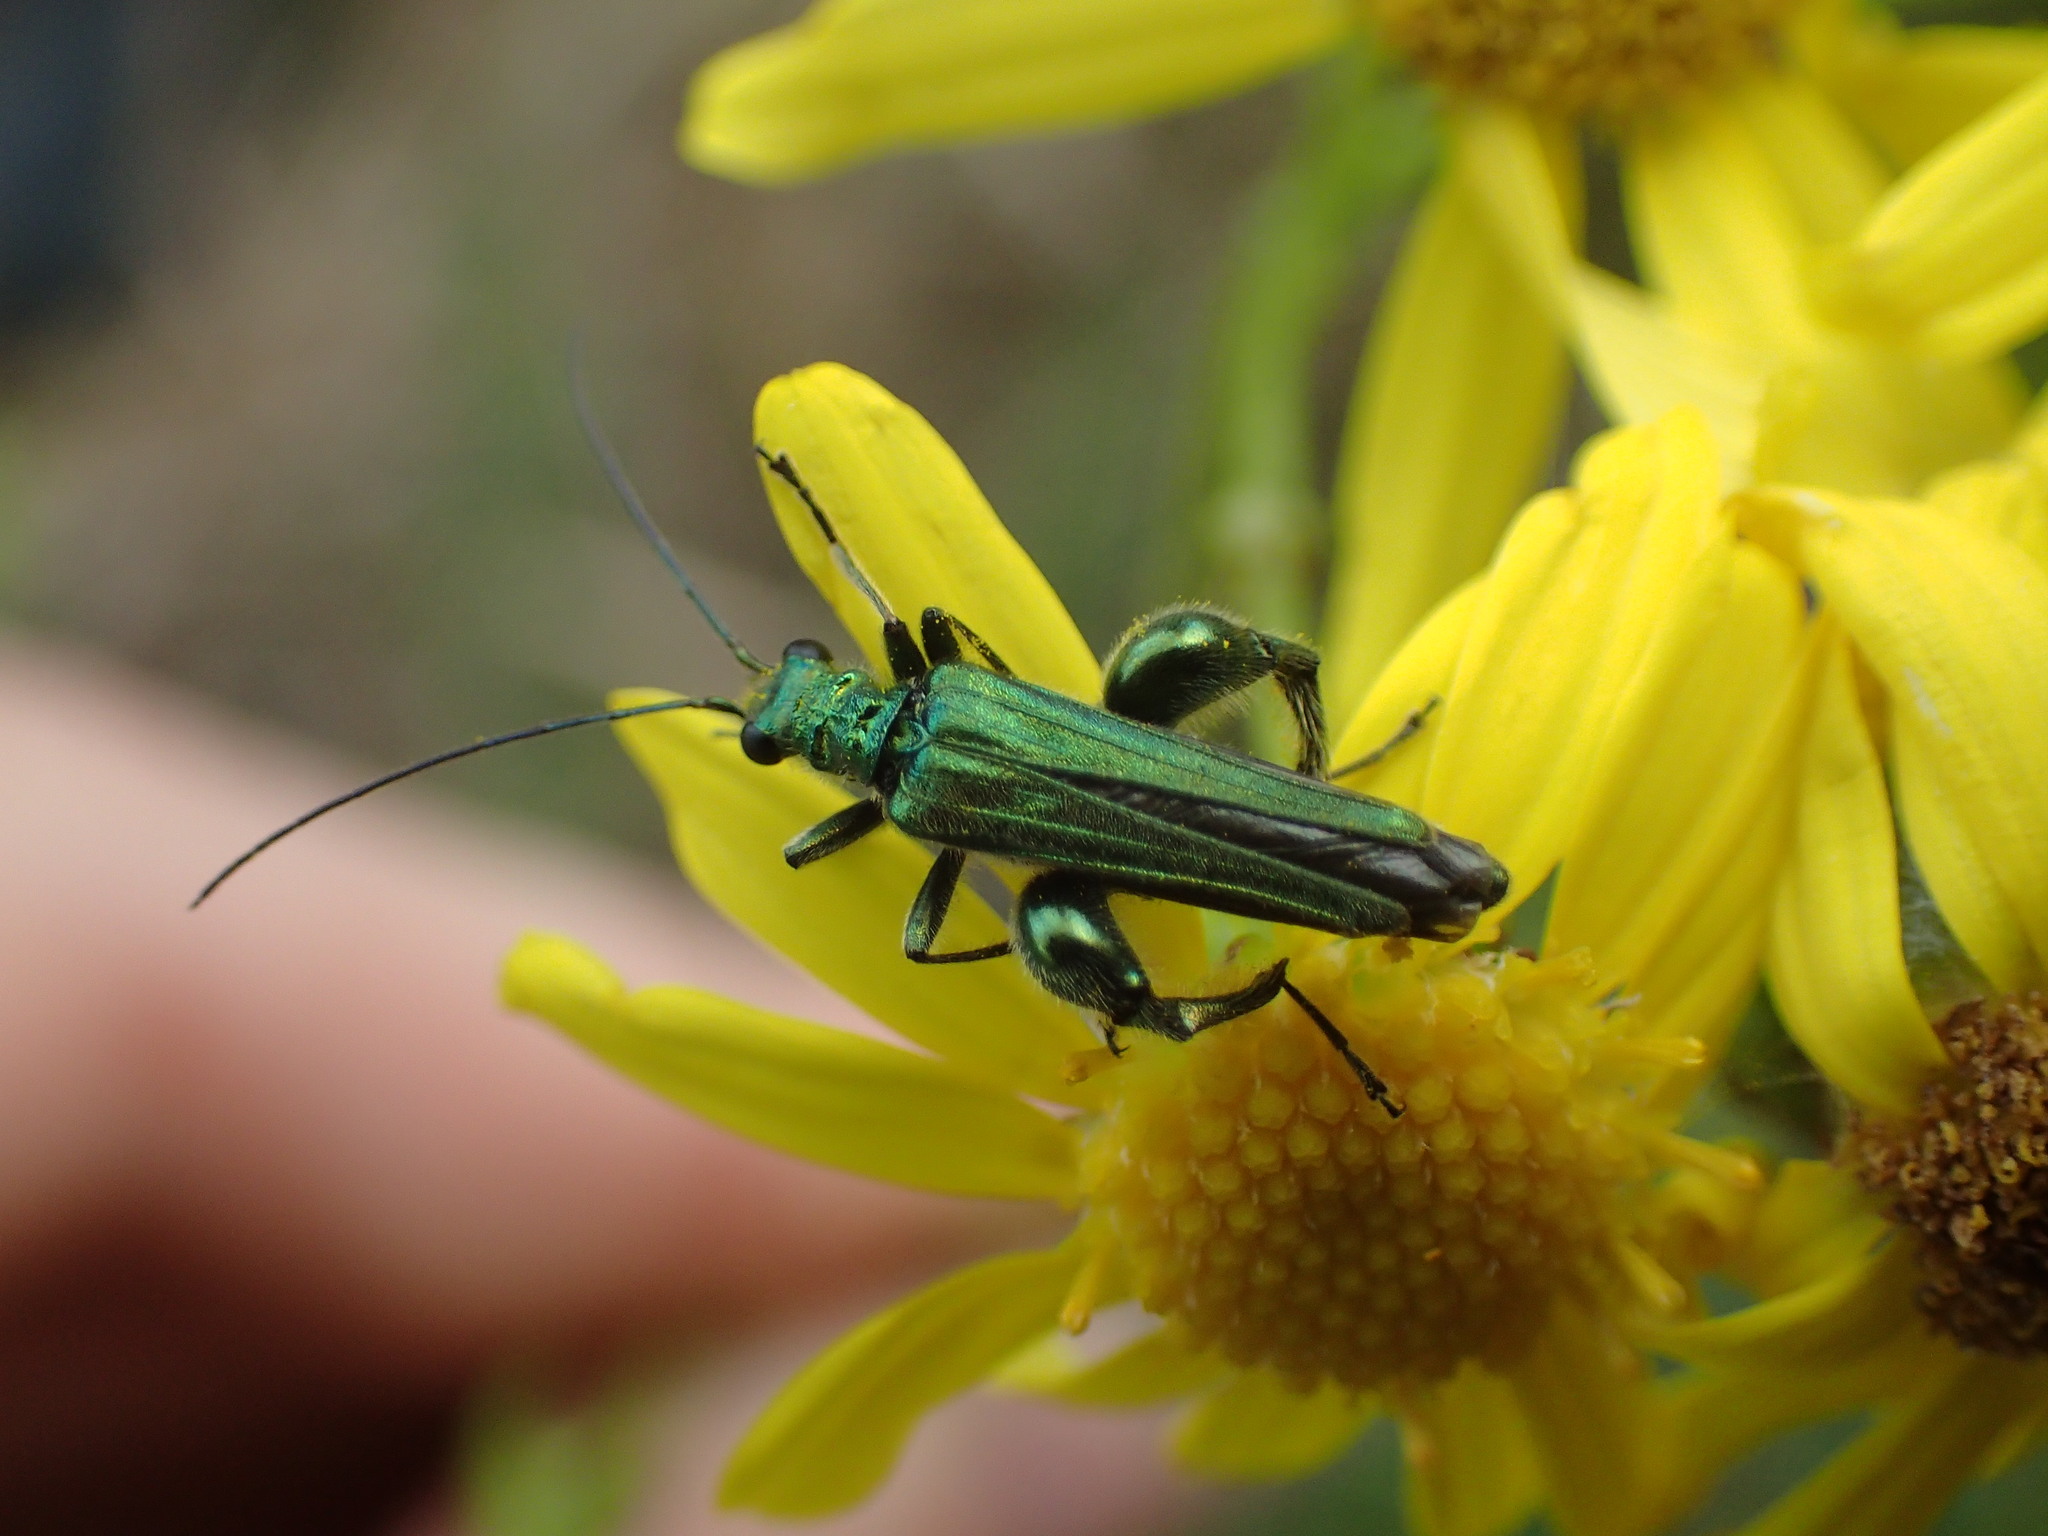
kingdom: Animalia
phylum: Arthropoda
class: Insecta
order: Coleoptera
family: Oedemeridae
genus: Oedemera
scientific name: Oedemera nobilis
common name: Swollen-thighed beetle
